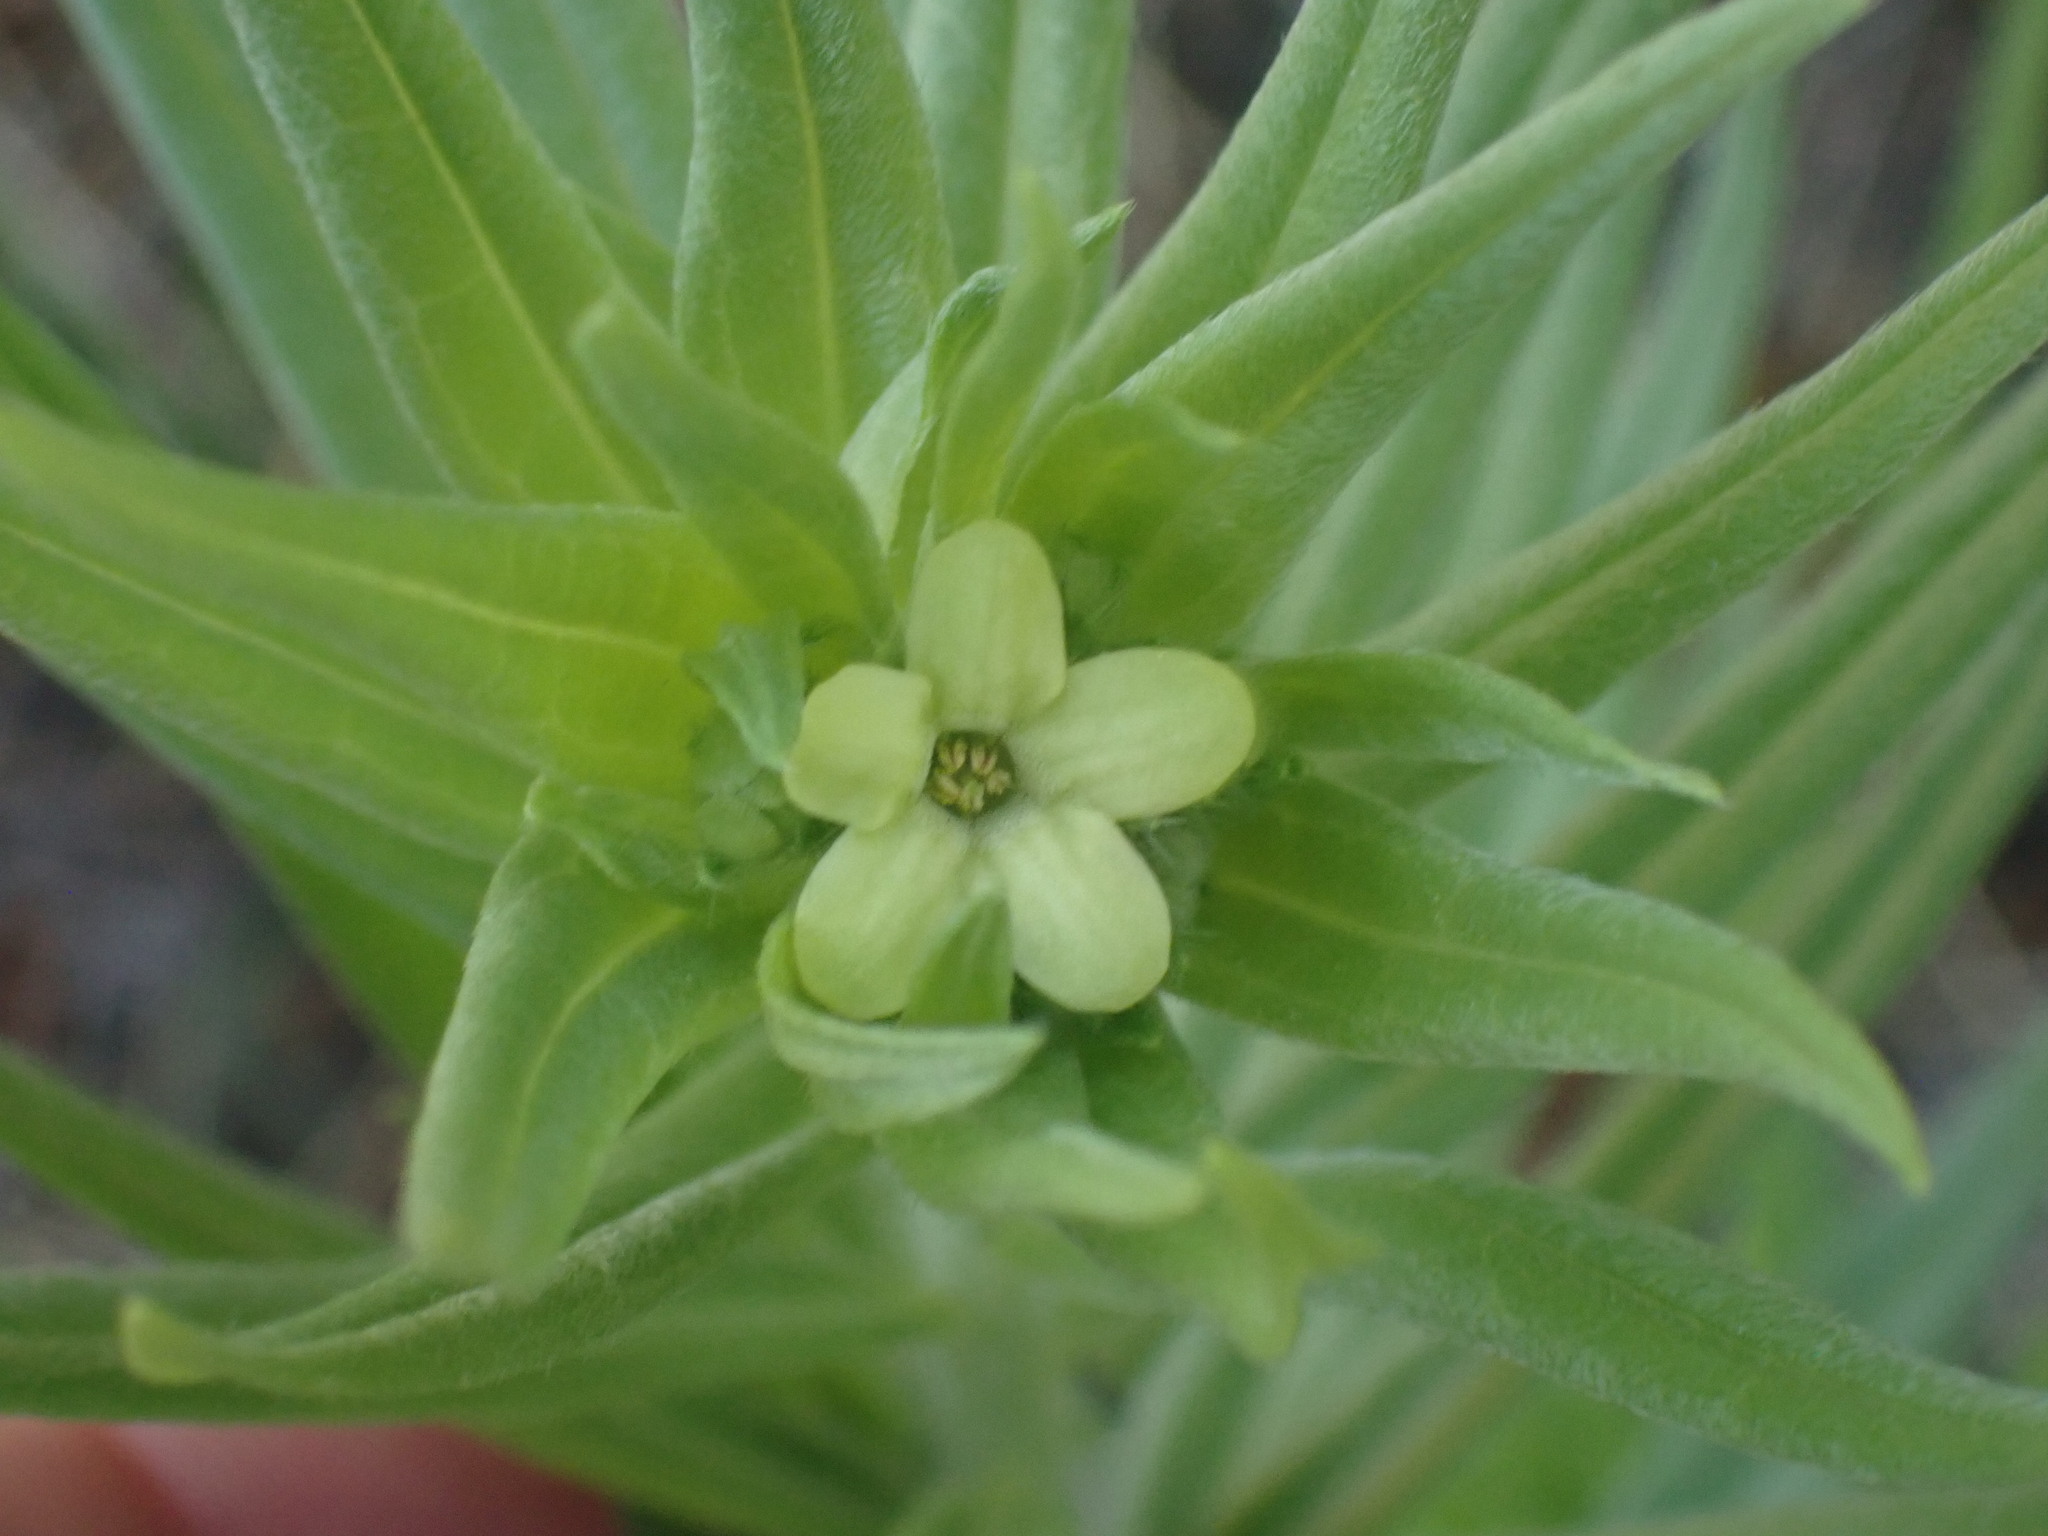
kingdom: Plantae
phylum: Tracheophyta
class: Magnoliopsida
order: Boraginales
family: Boraginaceae
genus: Lithospermum
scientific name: Lithospermum ruderale
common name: Western gromwell
